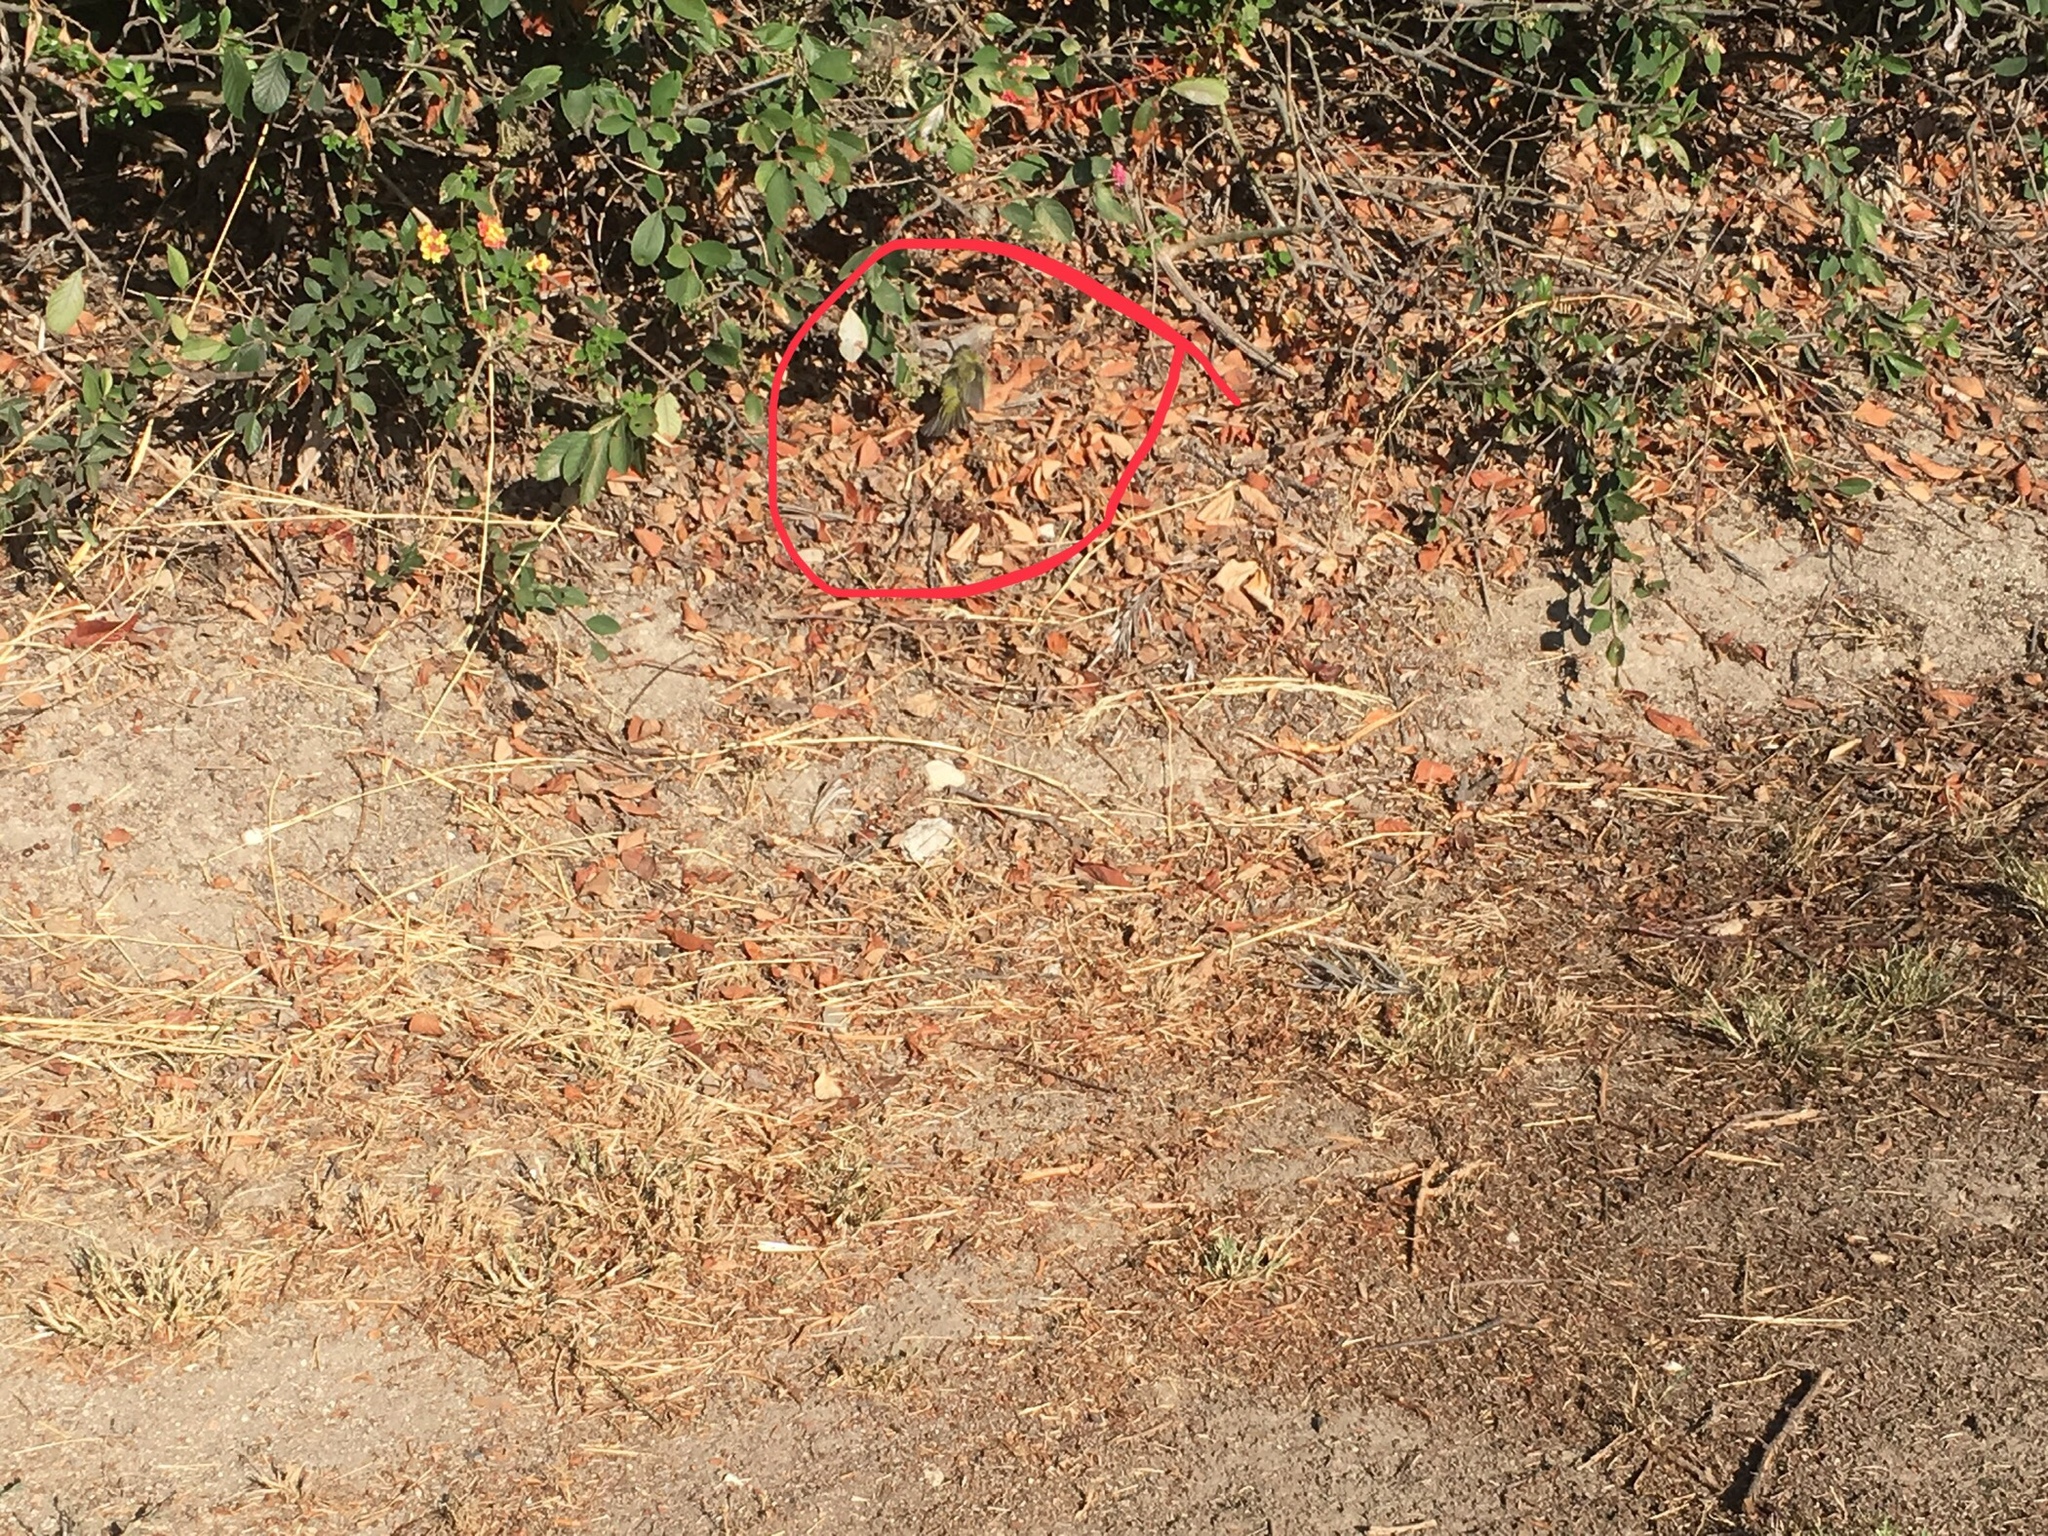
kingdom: Animalia
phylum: Chordata
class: Aves
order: Passeriformes
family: Parulidae
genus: Leiothlypis
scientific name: Leiothlypis celata
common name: Orange-crowned warbler
